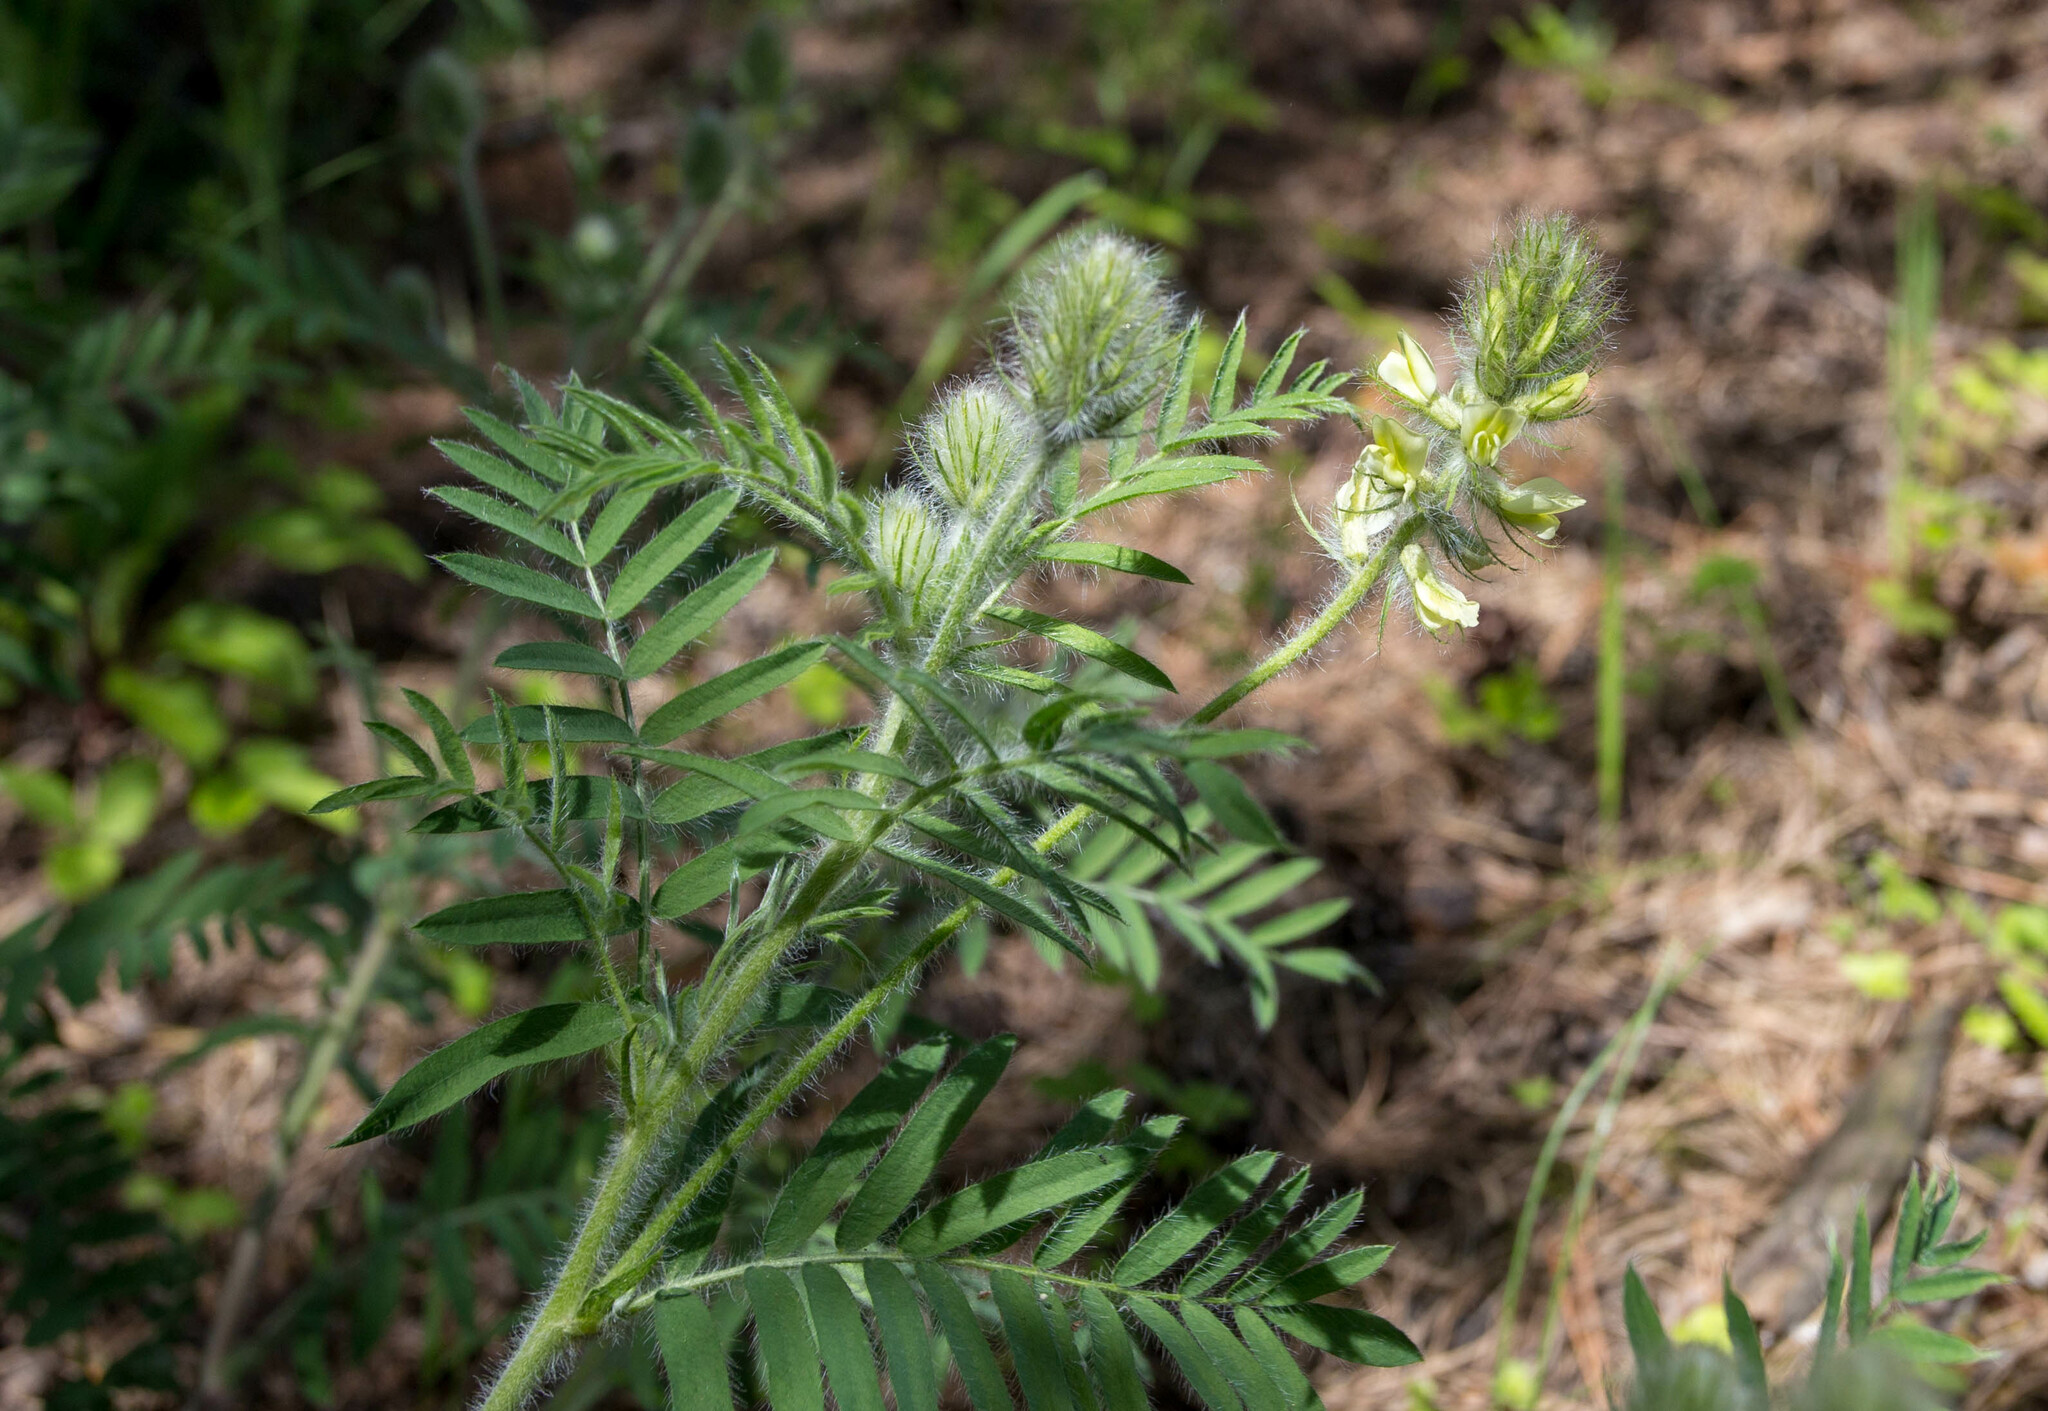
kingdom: Plantae
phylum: Tracheophyta
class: Magnoliopsida
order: Fabales
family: Fabaceae
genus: Oxytropis
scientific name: Oxytropis pilosa
